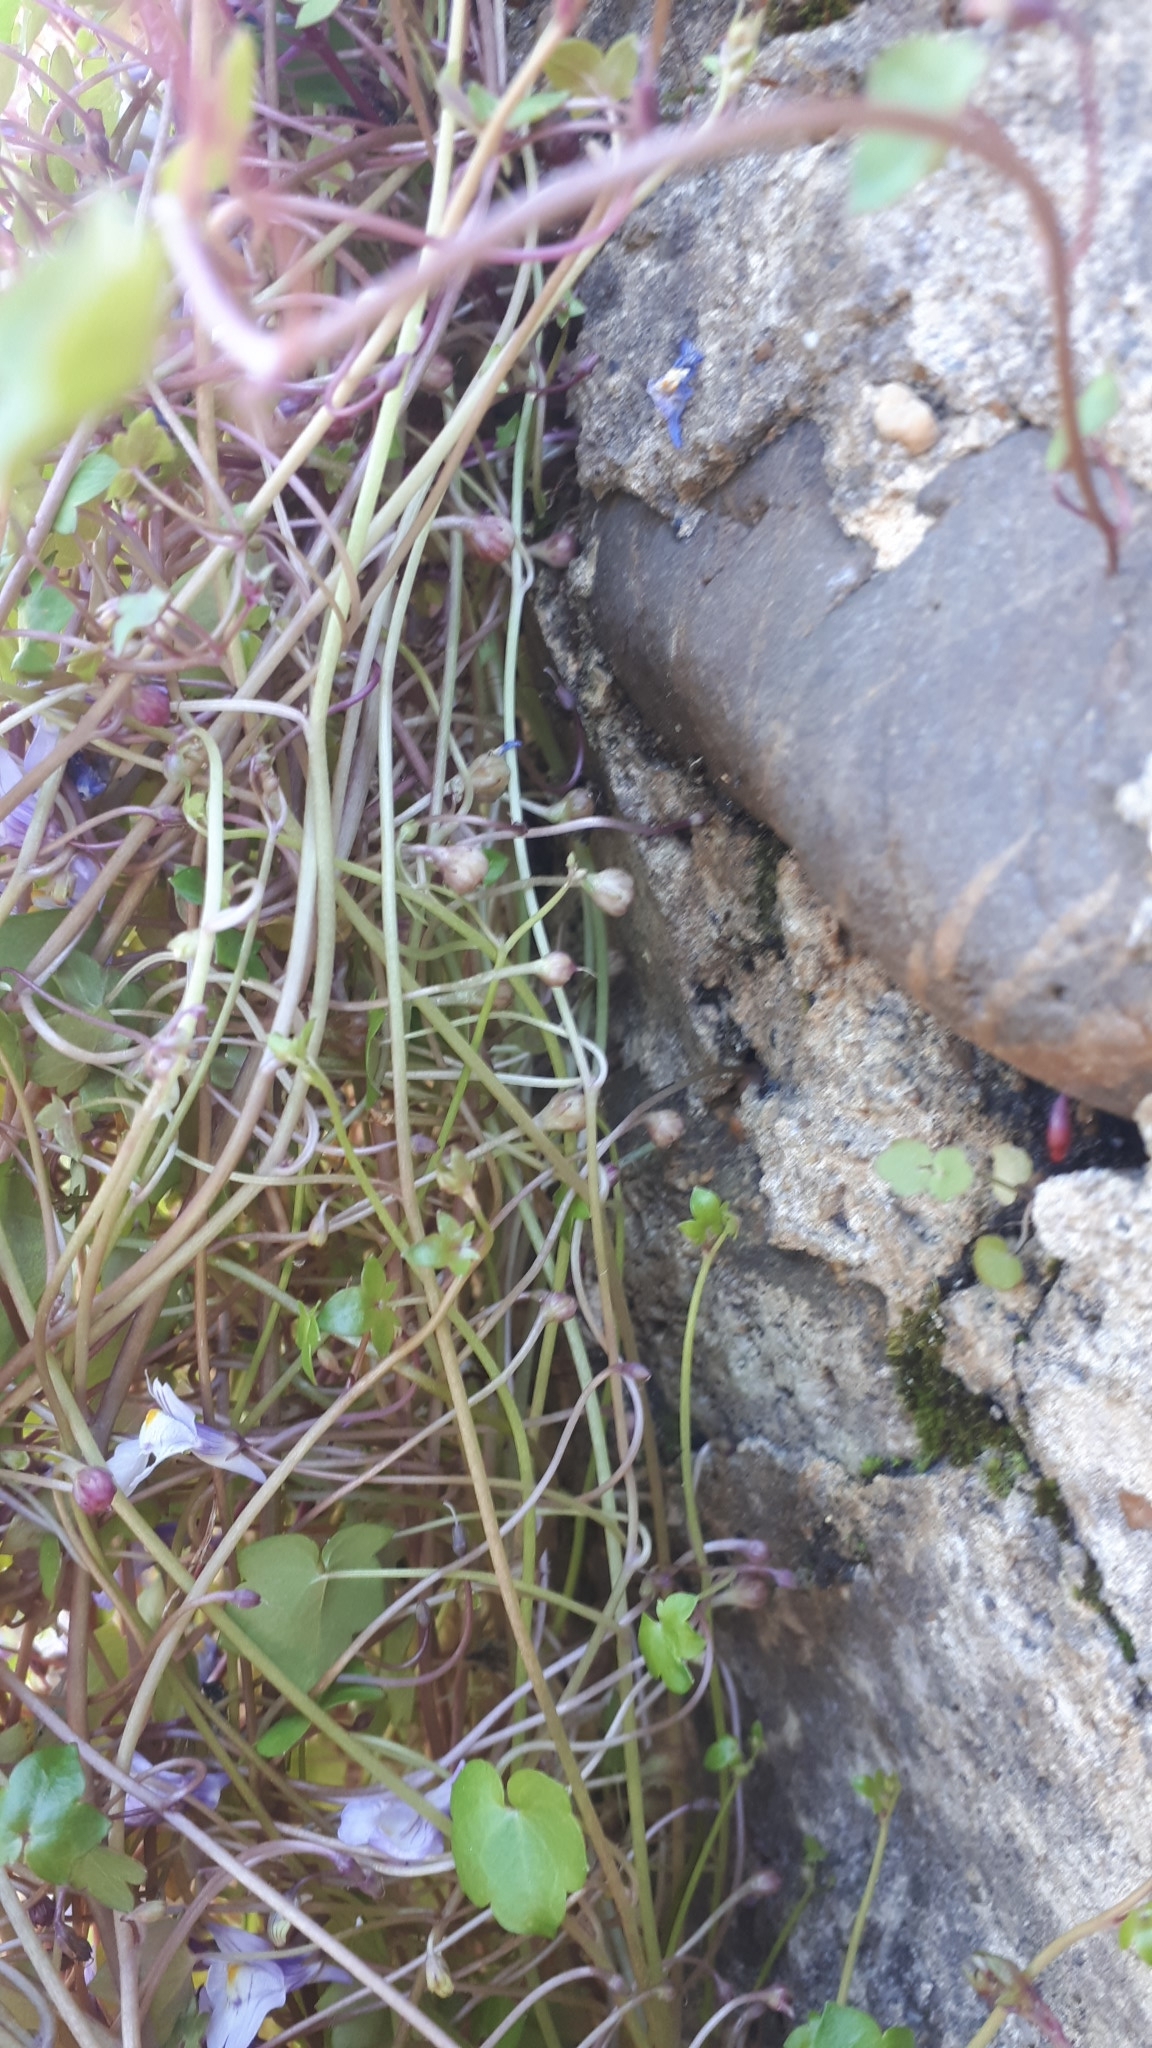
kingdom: Plantae
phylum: Tracheophyta
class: Magnoliopsida
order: Lamiales
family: Plantaginaceae
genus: Cymbalaria
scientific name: Cymbalaria muralis
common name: Ivy-leaved toadflax
